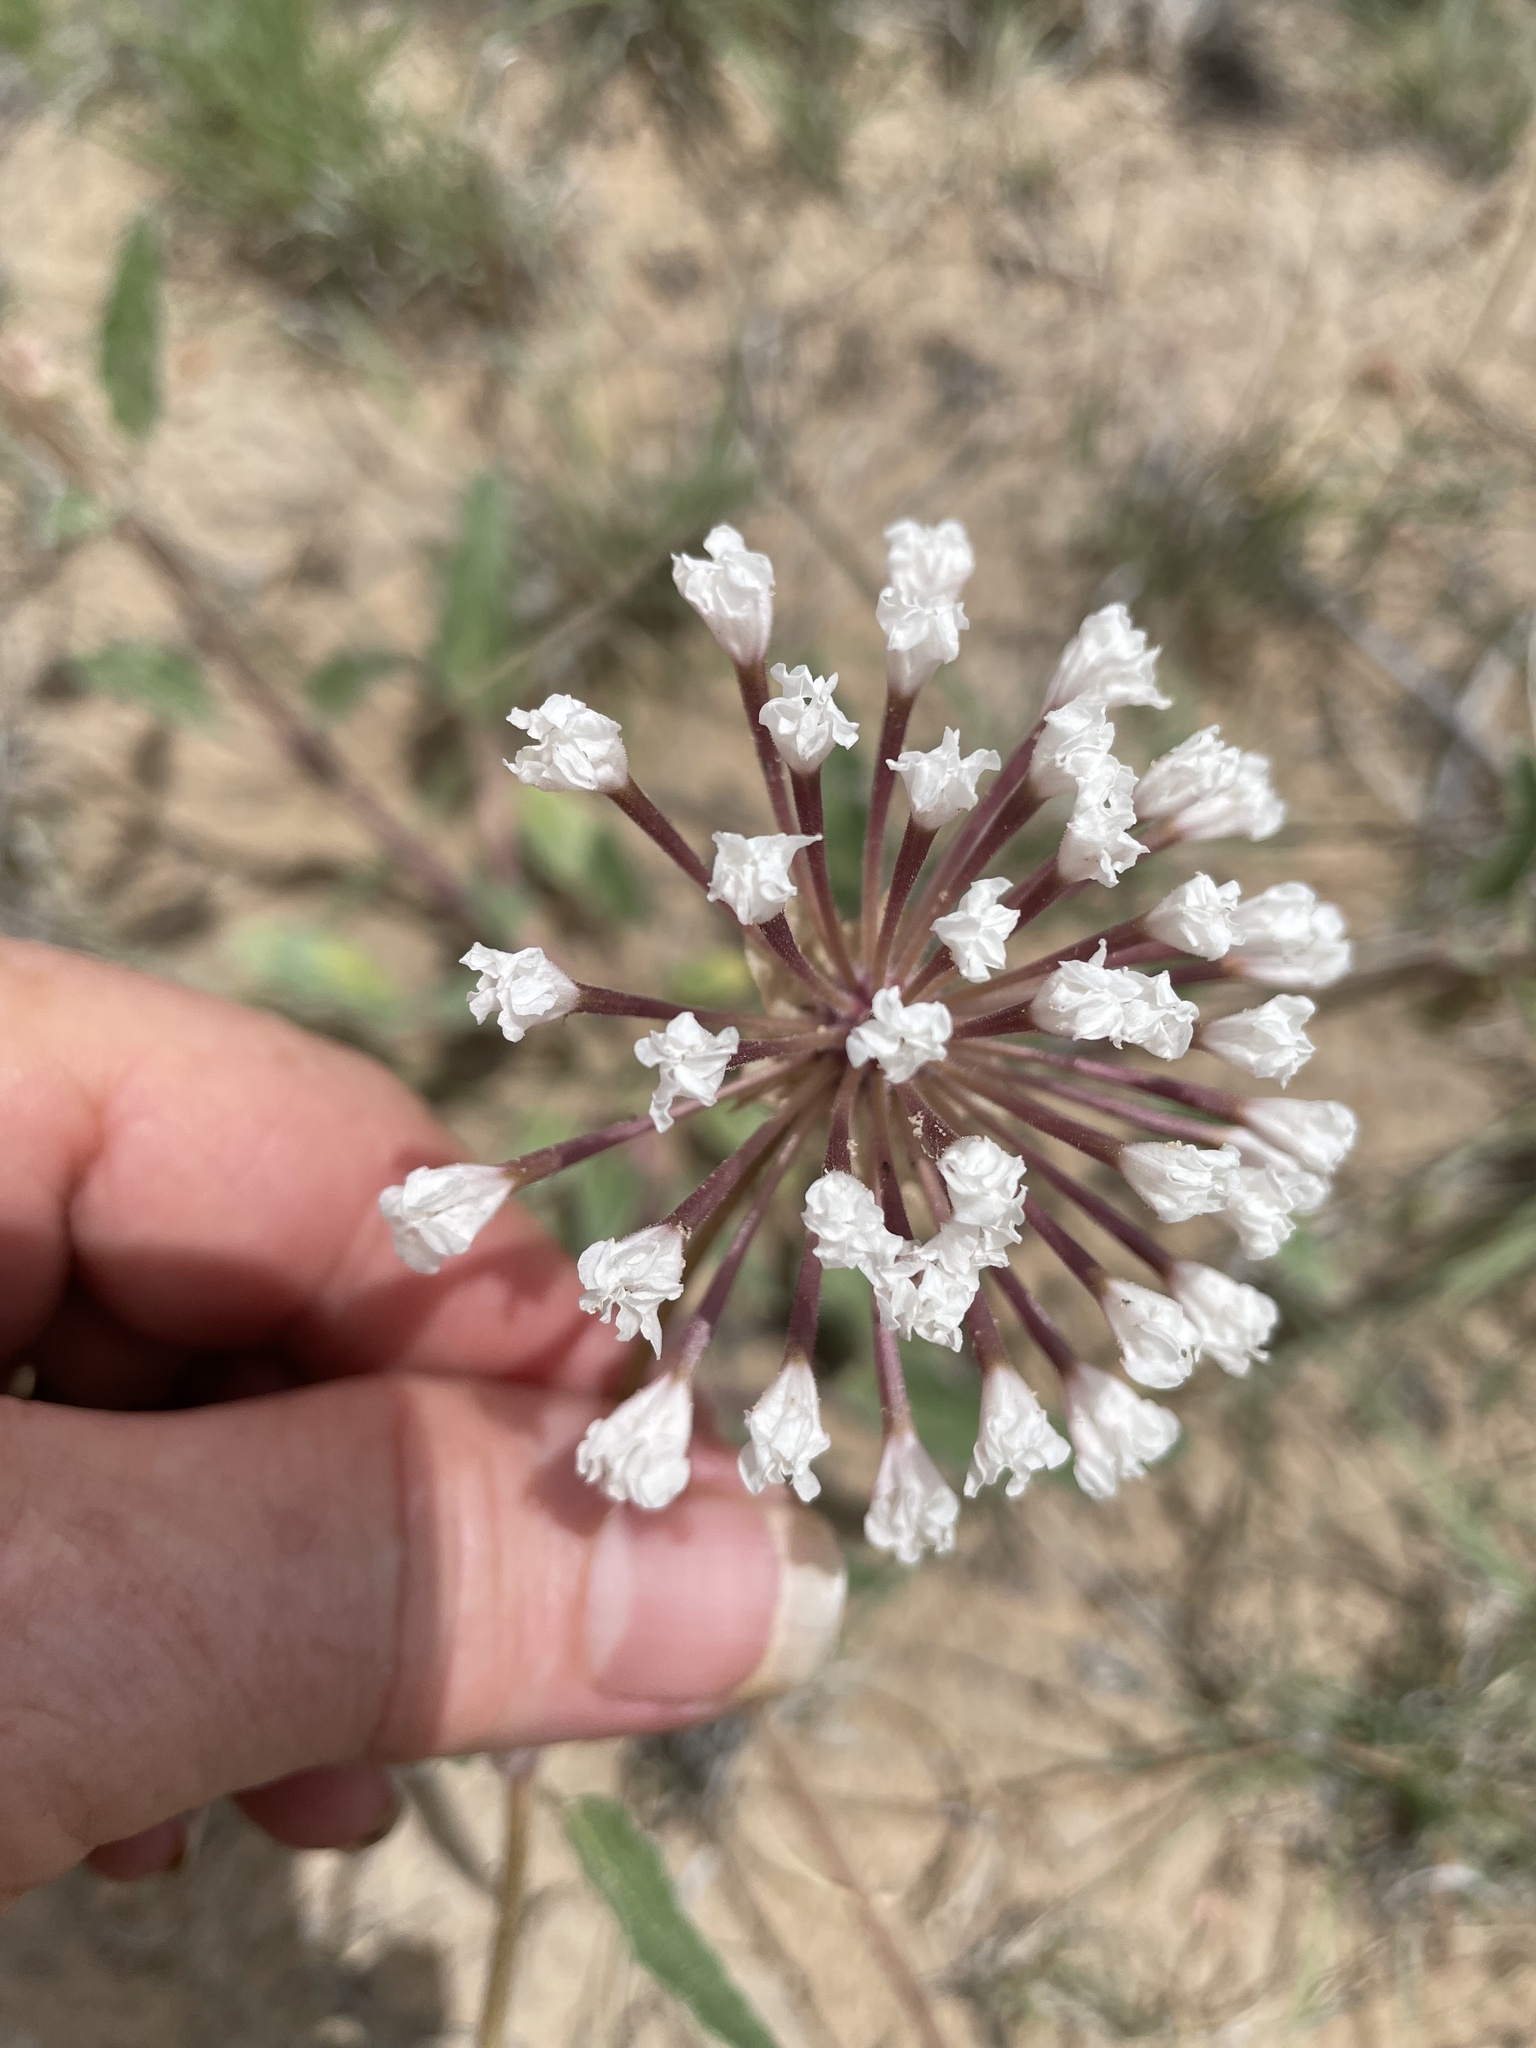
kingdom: Plantae
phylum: Tracheophyta
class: Magnoliopsida
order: Caryophyllales
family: Nyctaginaceae
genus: Abronia
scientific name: Abronia fragrans
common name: Fragrant sand-verbena
